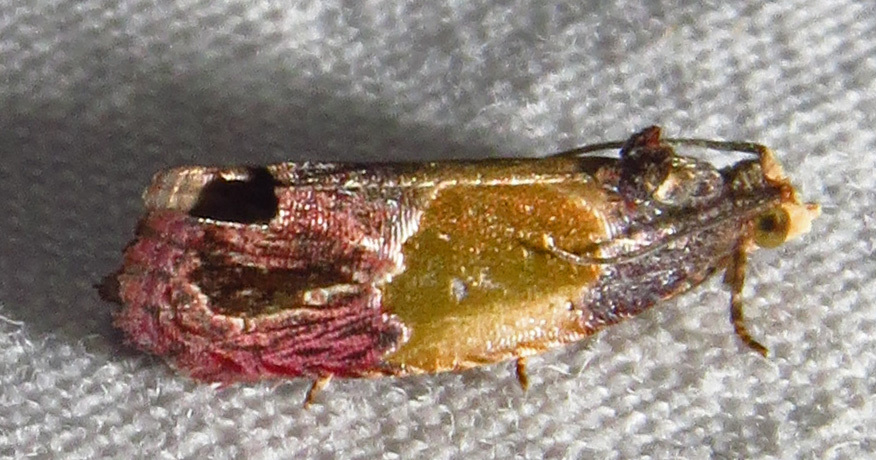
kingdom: Animalia
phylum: Arthropoda
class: Insecta
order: Lepidoptera
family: Tortricidae
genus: Eumarozia
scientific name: Eumarozia malachitana
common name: Sculptured moth
